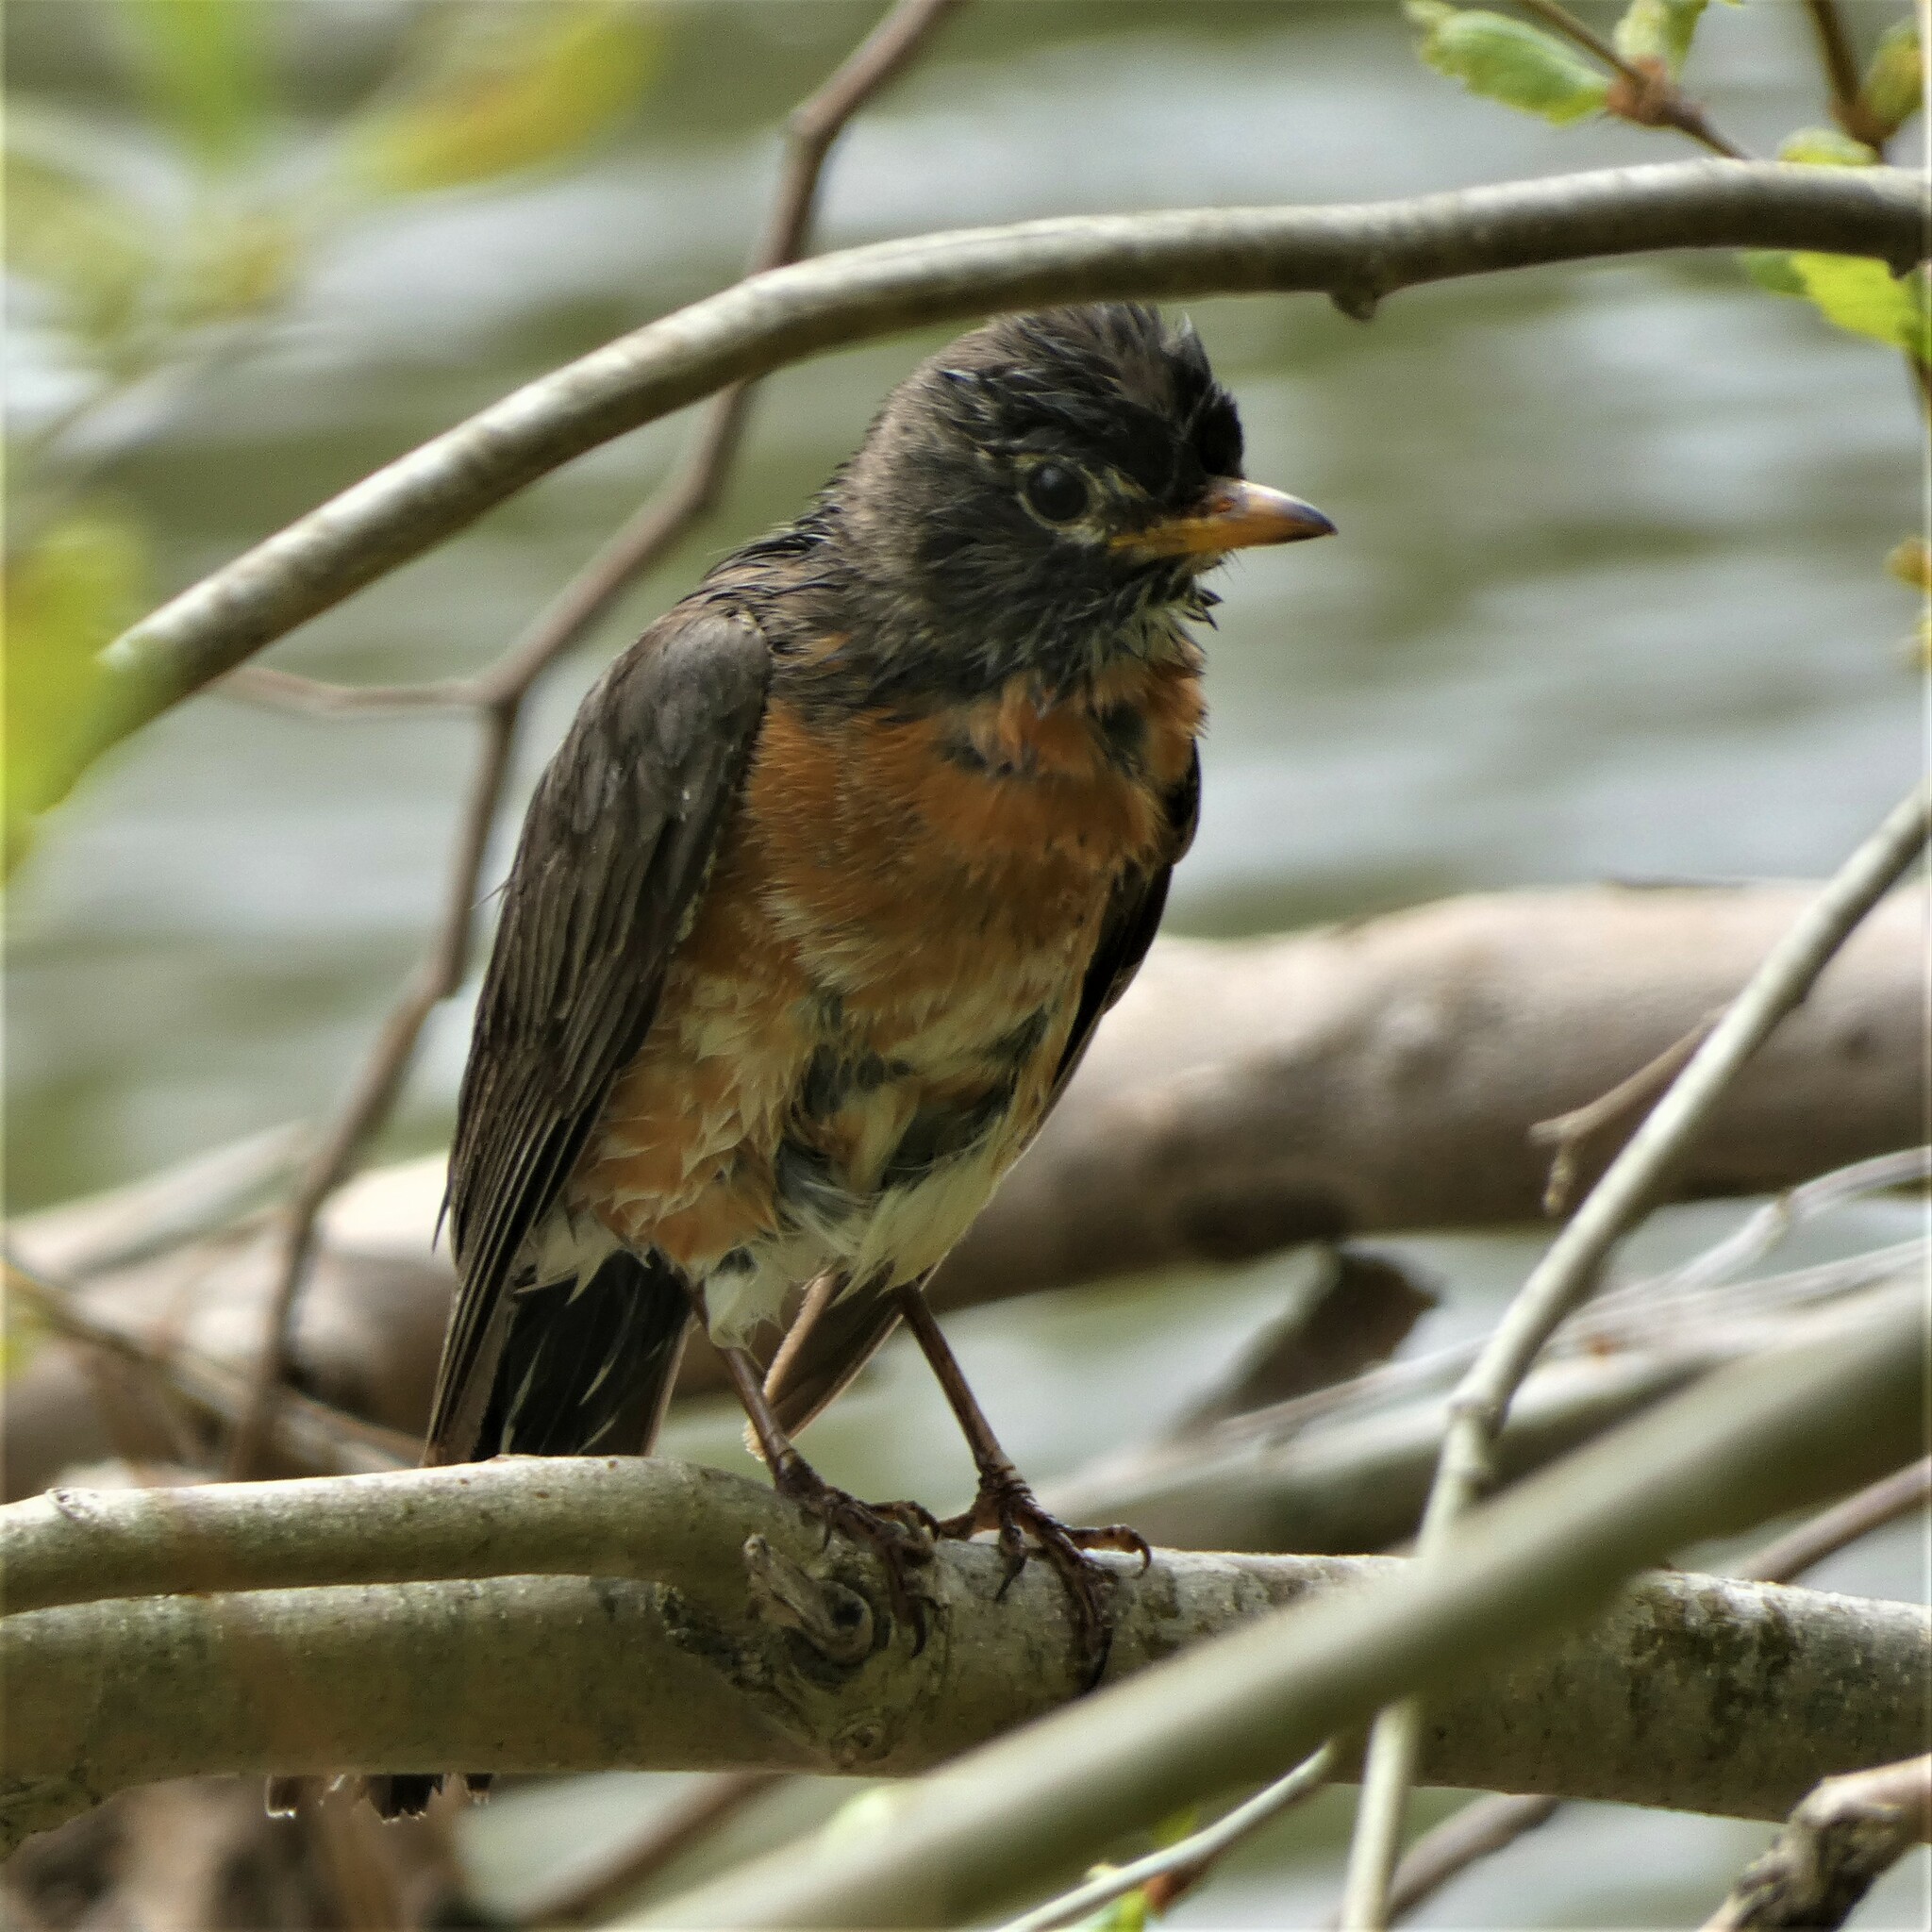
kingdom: Animalia
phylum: Chordata
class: Aves
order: Passeriformes
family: Turdidae
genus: Turdus
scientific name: Turdus migratorius
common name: American robin
